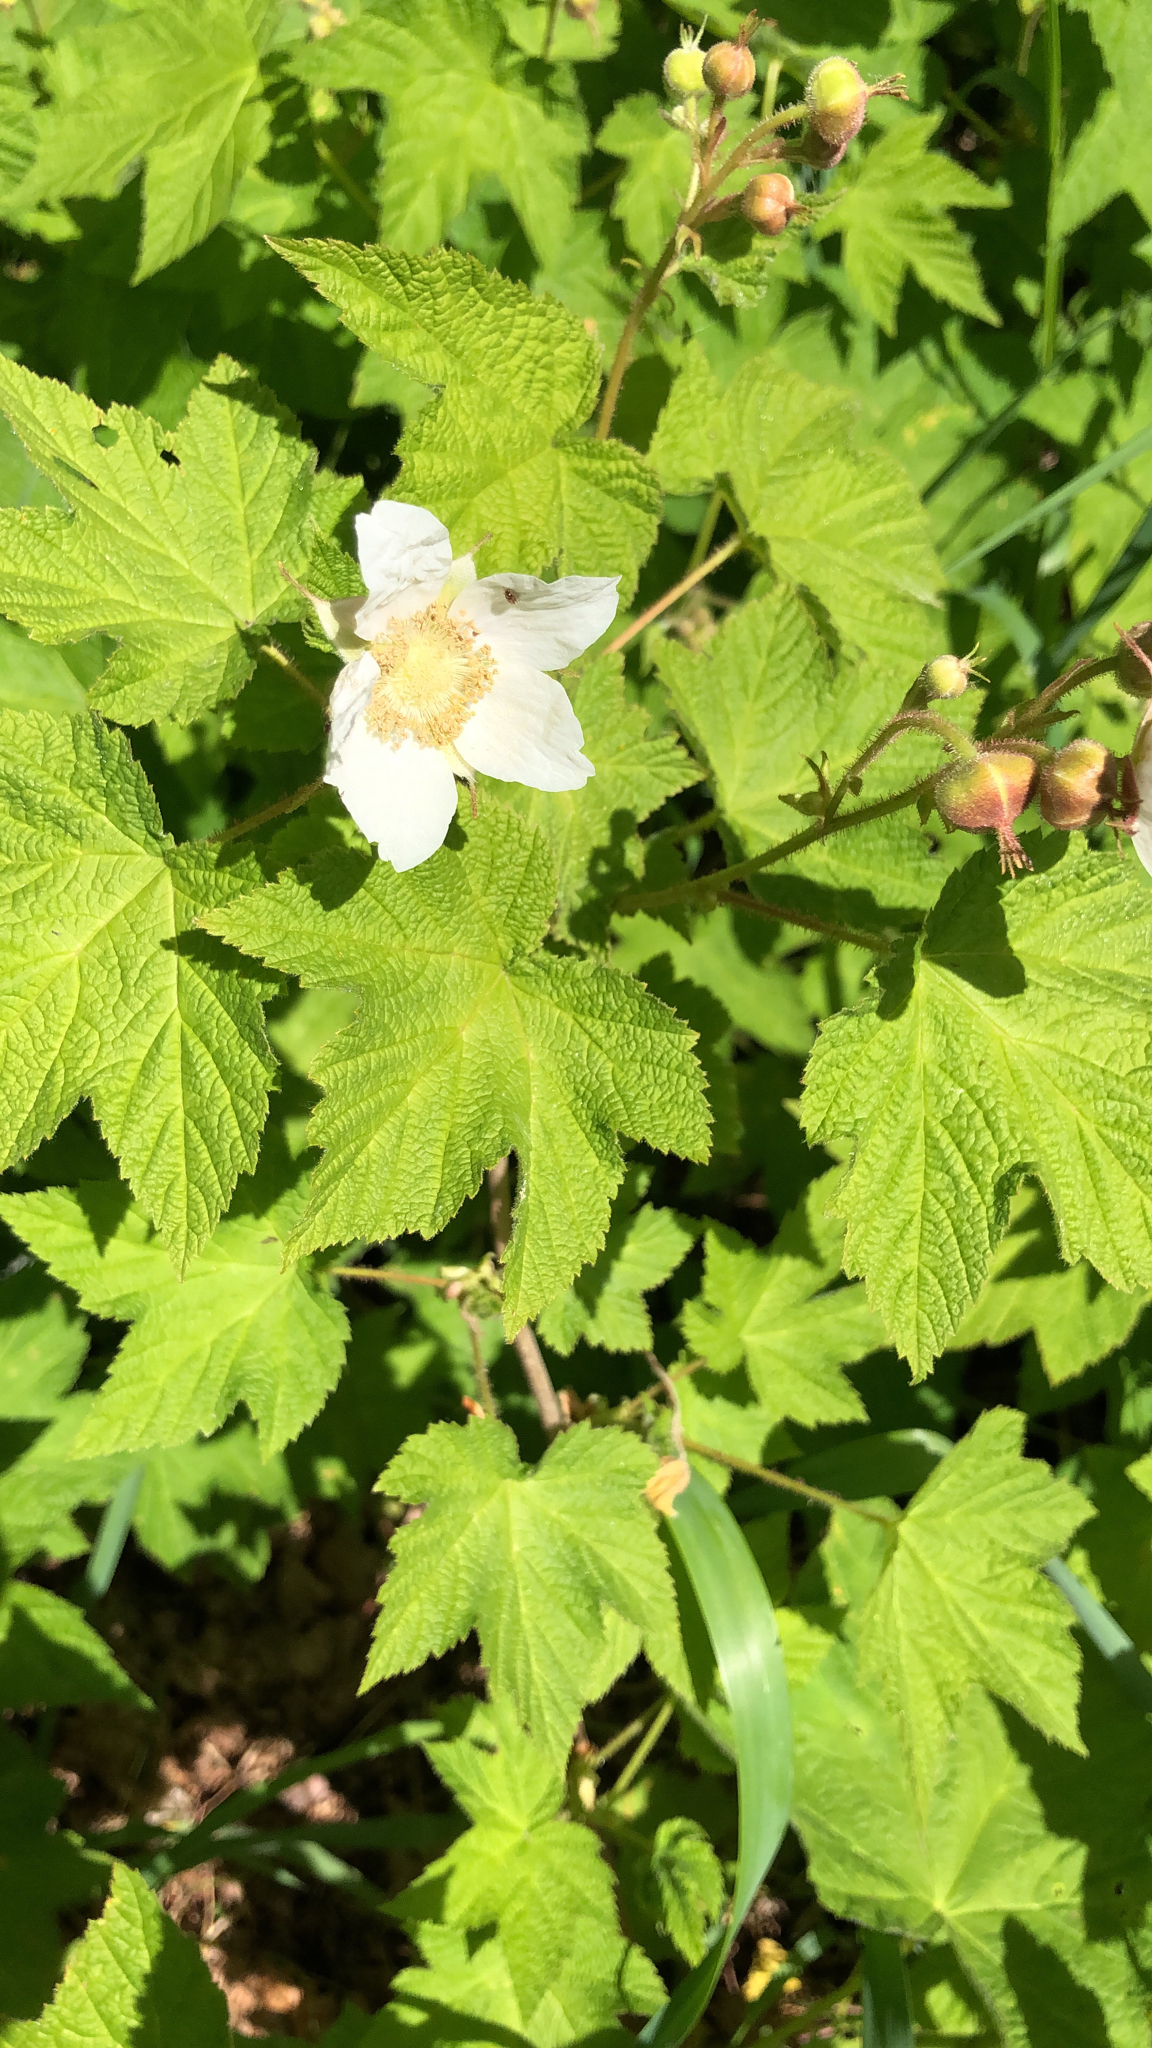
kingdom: Plantae
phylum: Tracheophyta
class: Magnoliopsida
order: Rosales
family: Rosaceae
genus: Rubus
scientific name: Rubus parviflorus
